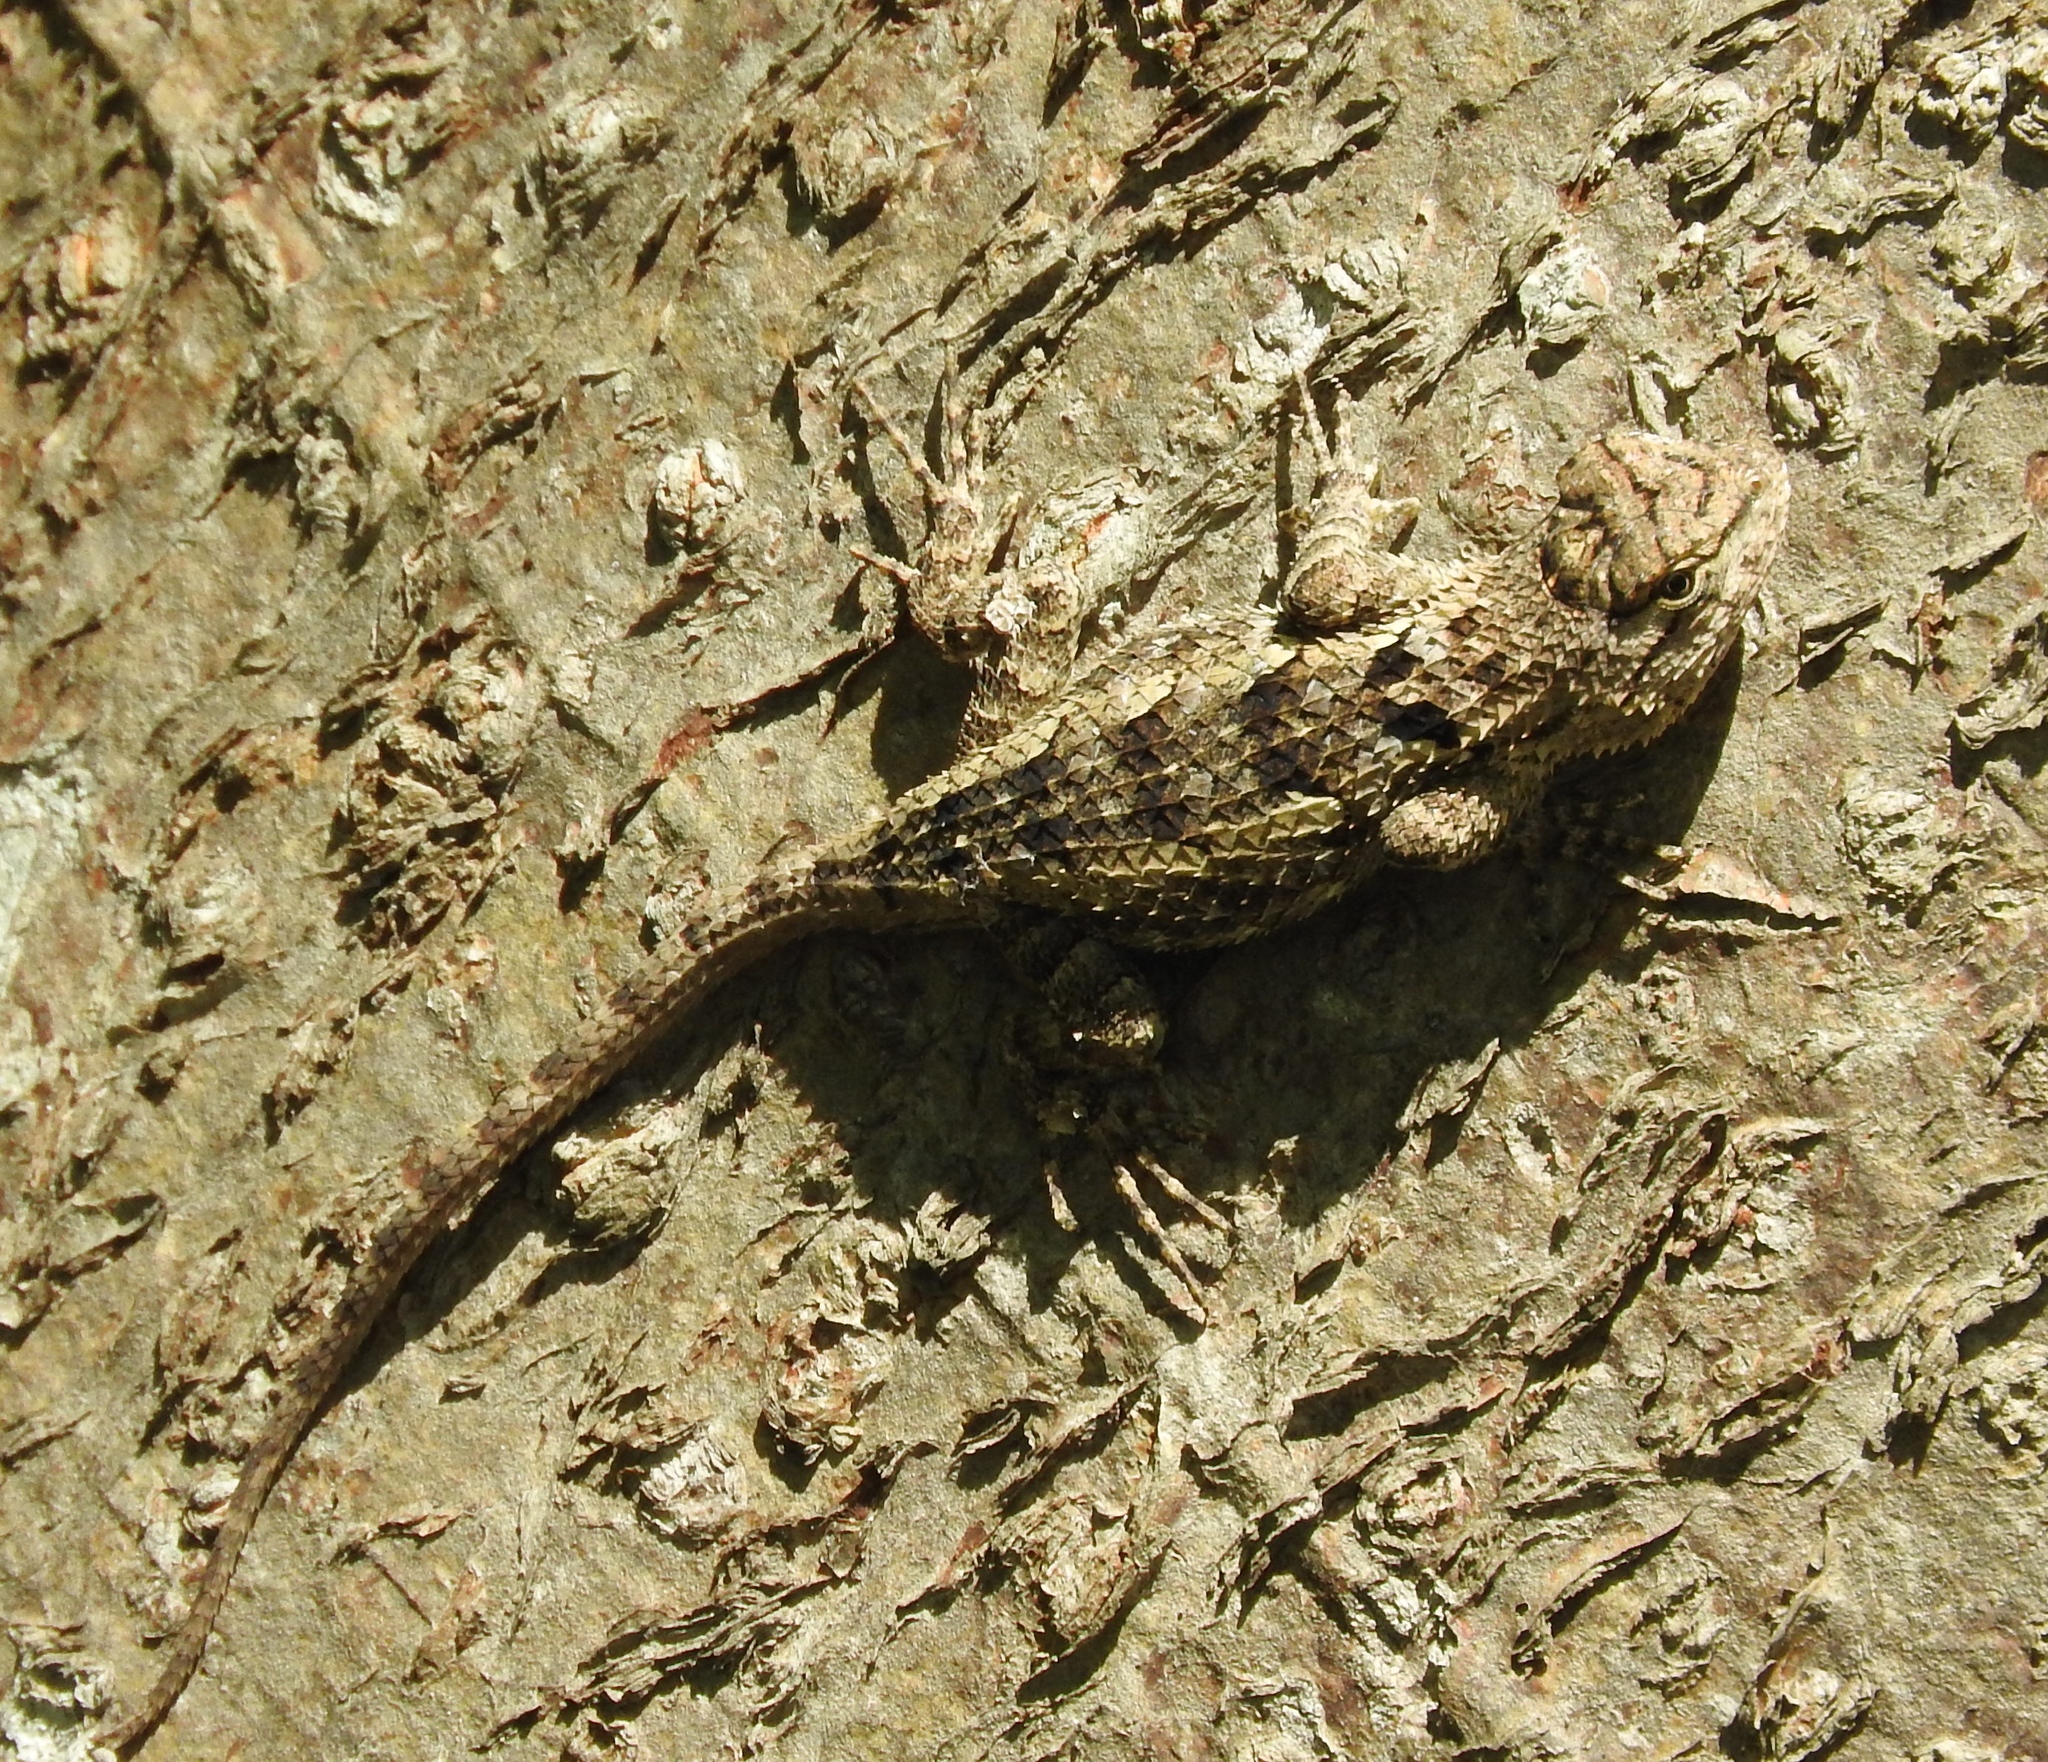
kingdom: Animalia
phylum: Chordata
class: Squamata
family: Phrynosomatidae
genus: Sceloporus
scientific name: Sceloporus clarkii
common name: Clark's spiny lizard
